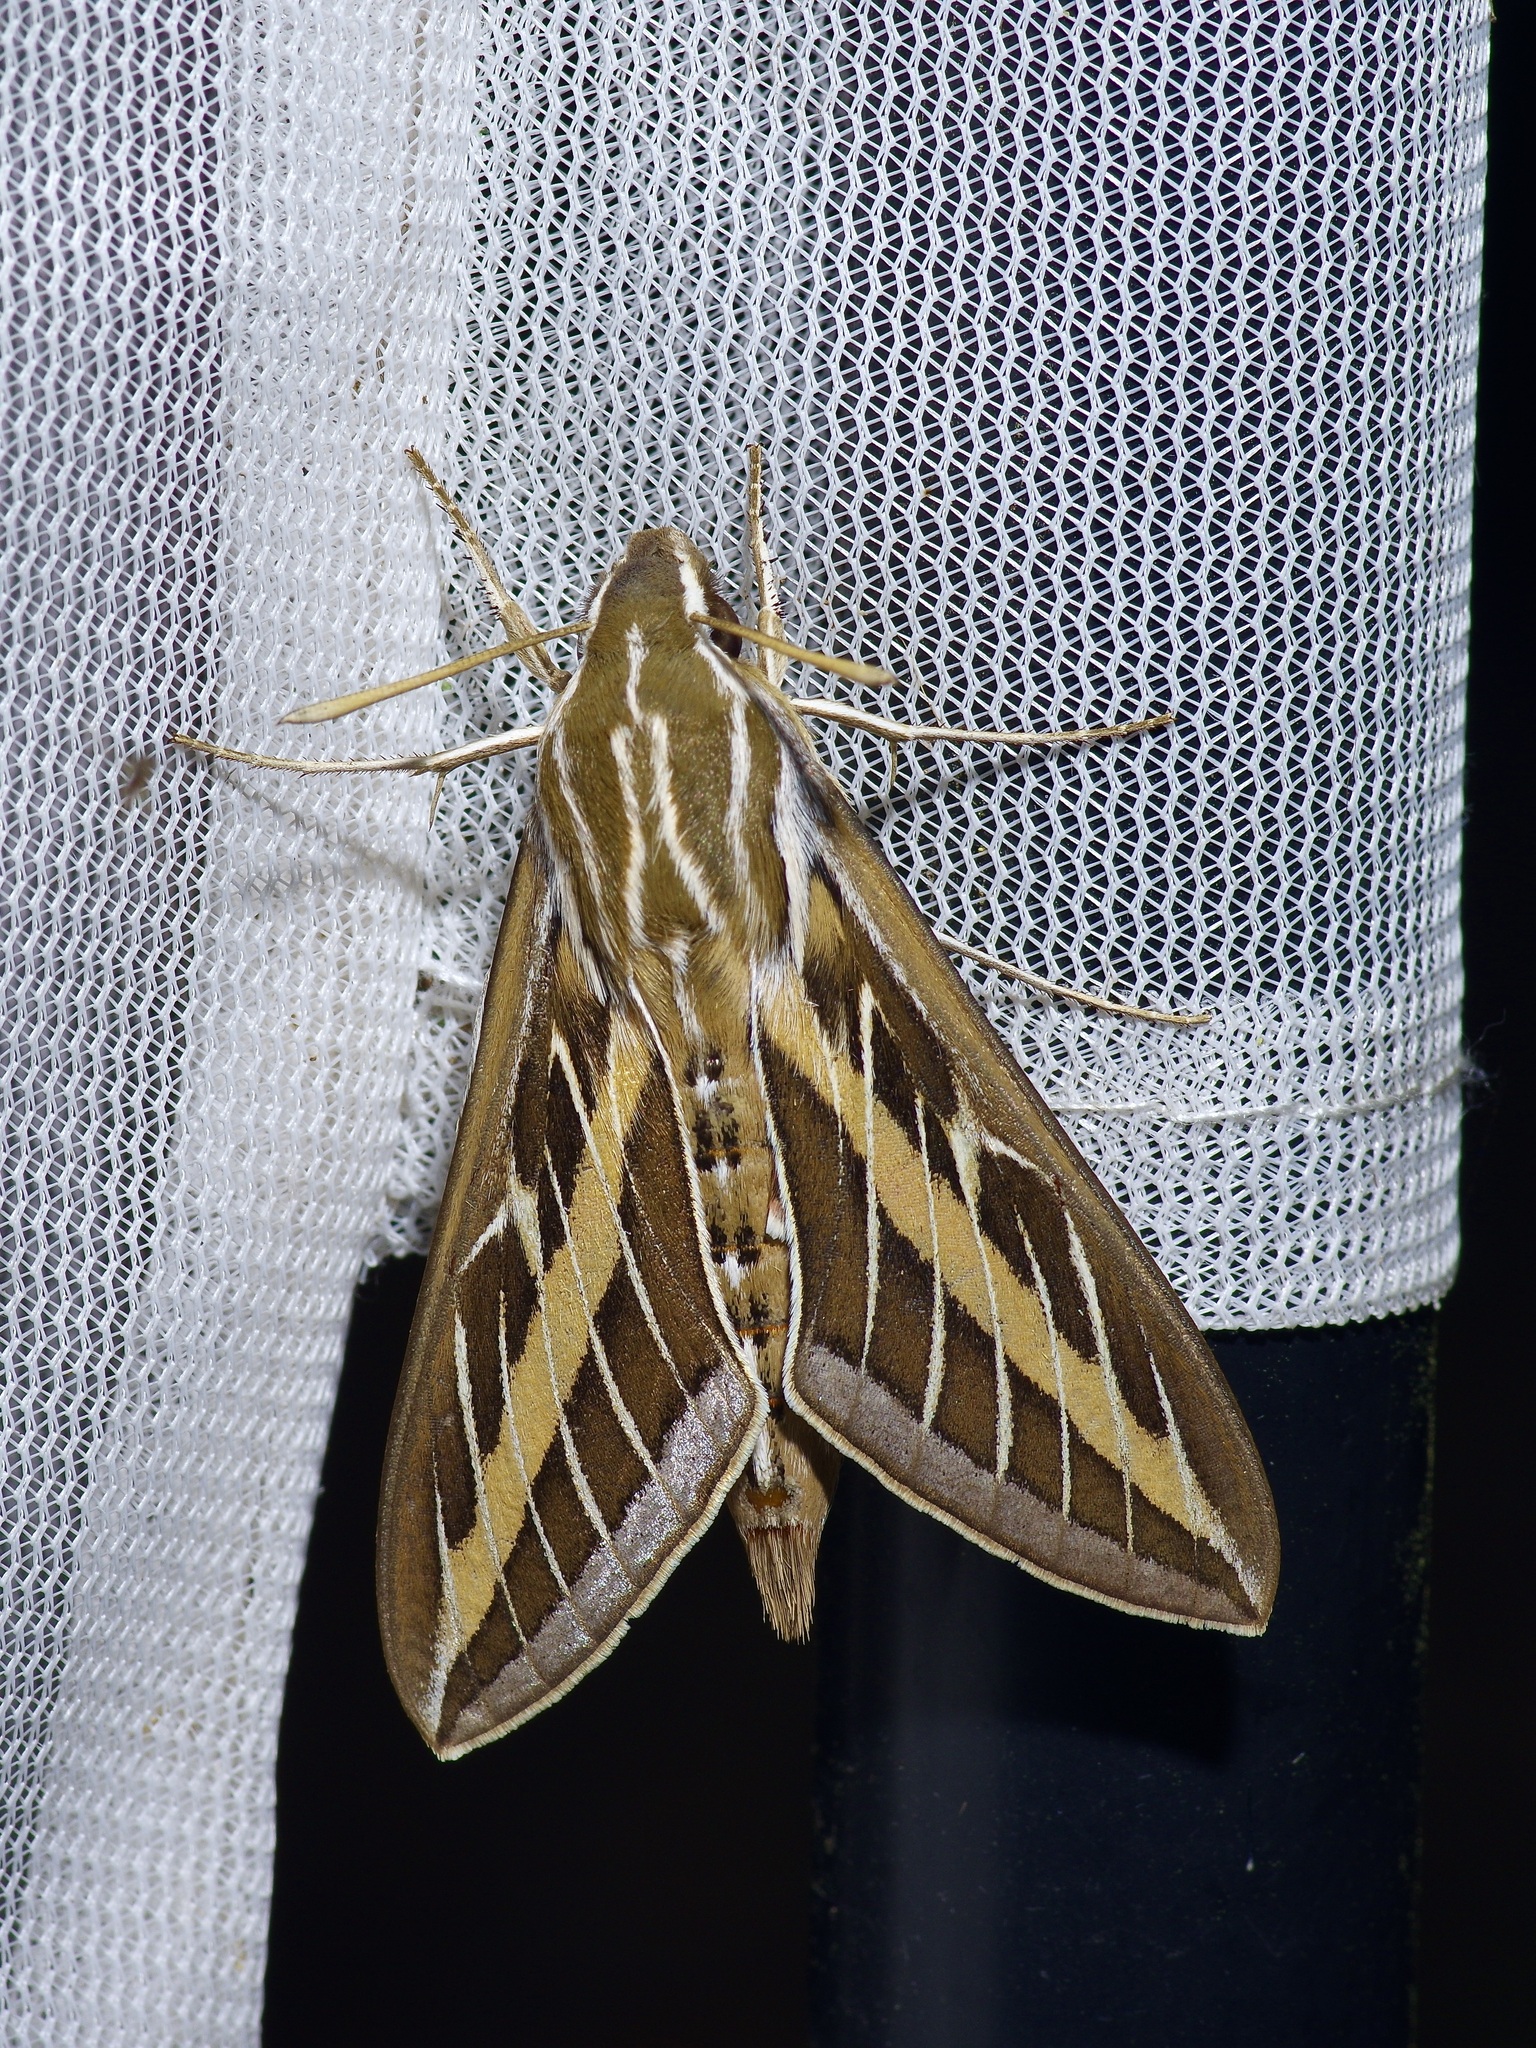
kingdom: Animalia
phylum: Arthropoda
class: Insecta
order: Lepidoptera
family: Sphingidae
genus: Hyles
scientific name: Hyles lineata
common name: White-lined sphinx
